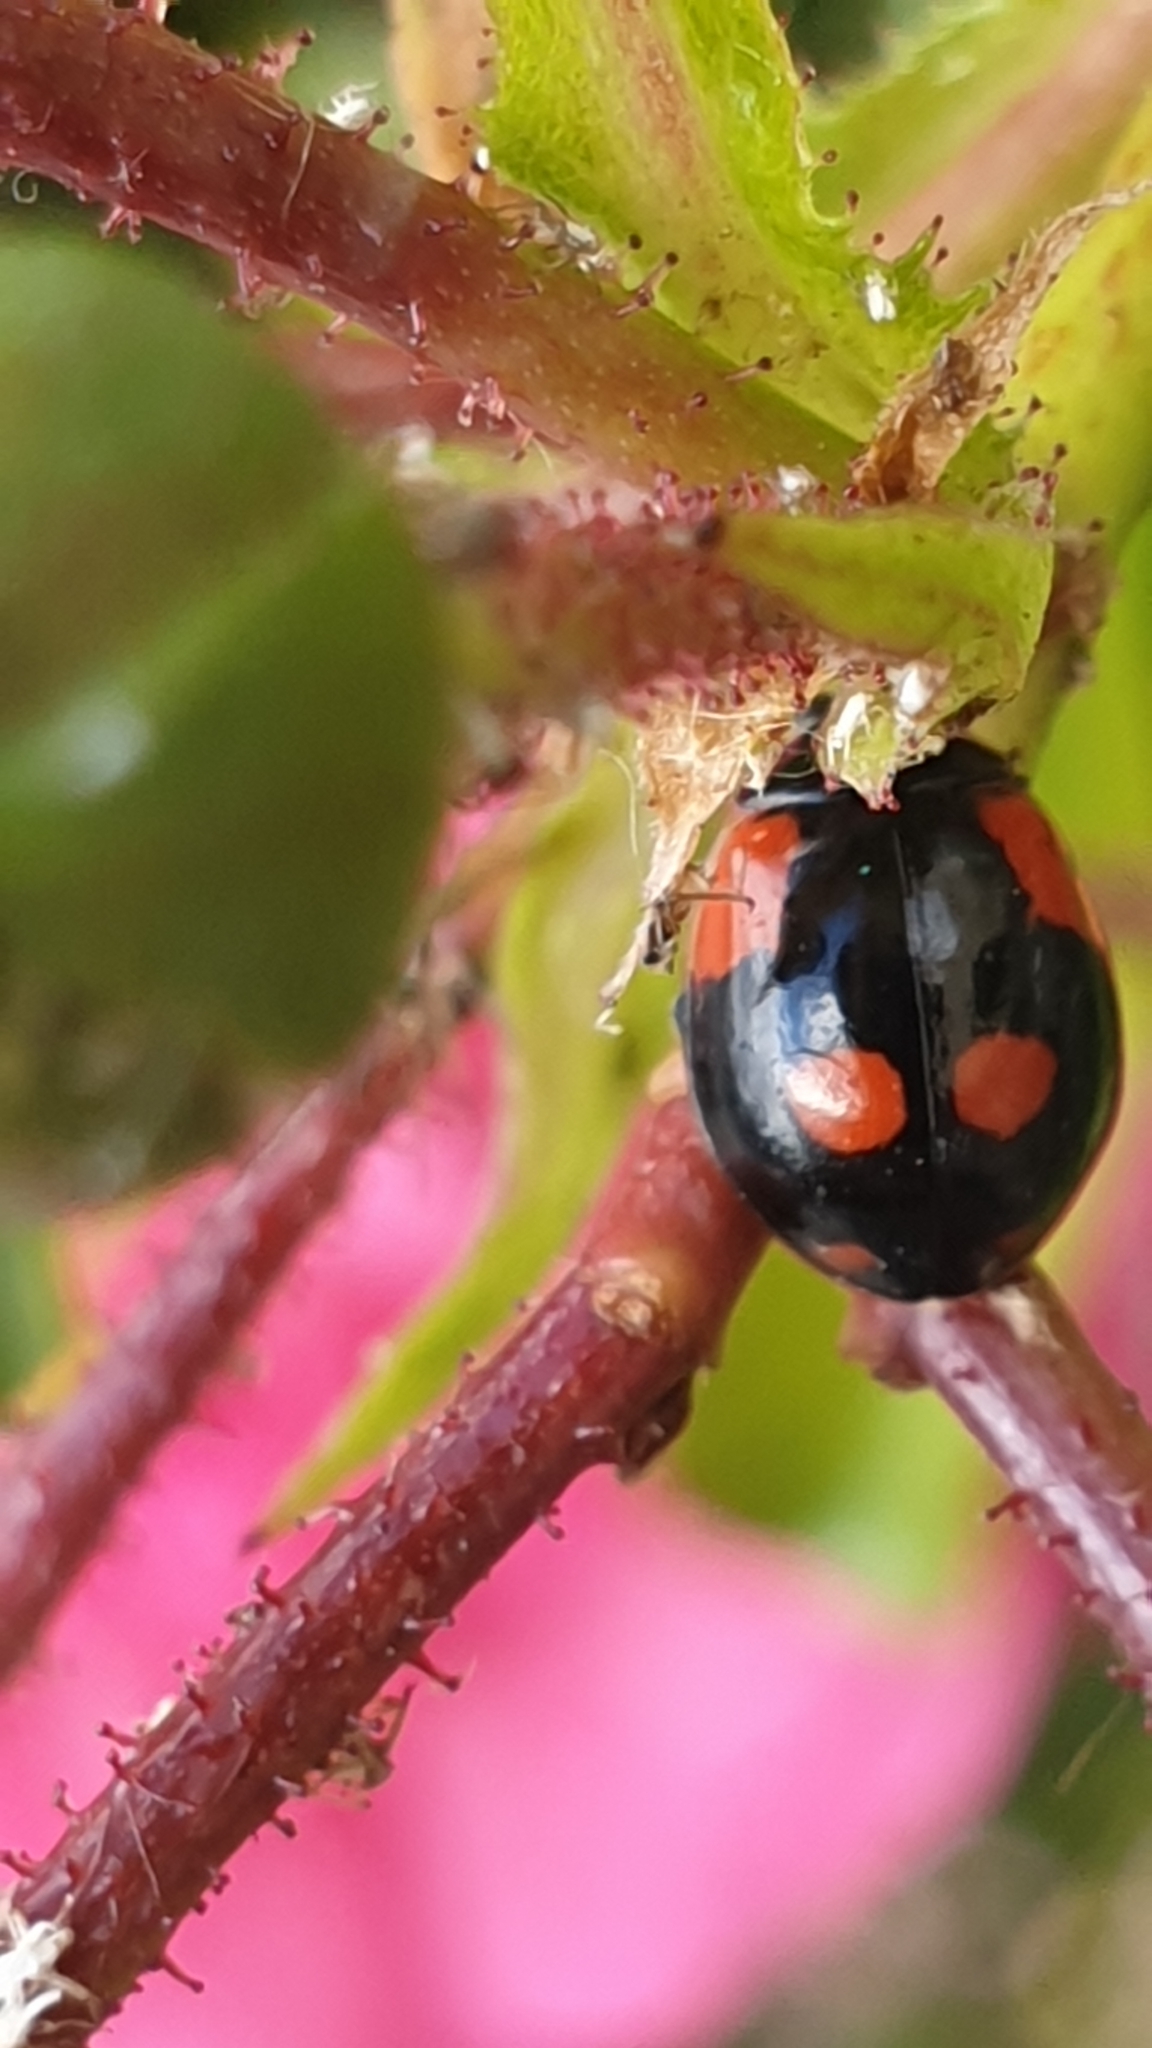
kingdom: Animalia
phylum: Arthropoda
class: Insecta
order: Coleoptera
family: Coccinellidae
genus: Adalia
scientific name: Adalia bipunctata
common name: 2-spot ladybird
